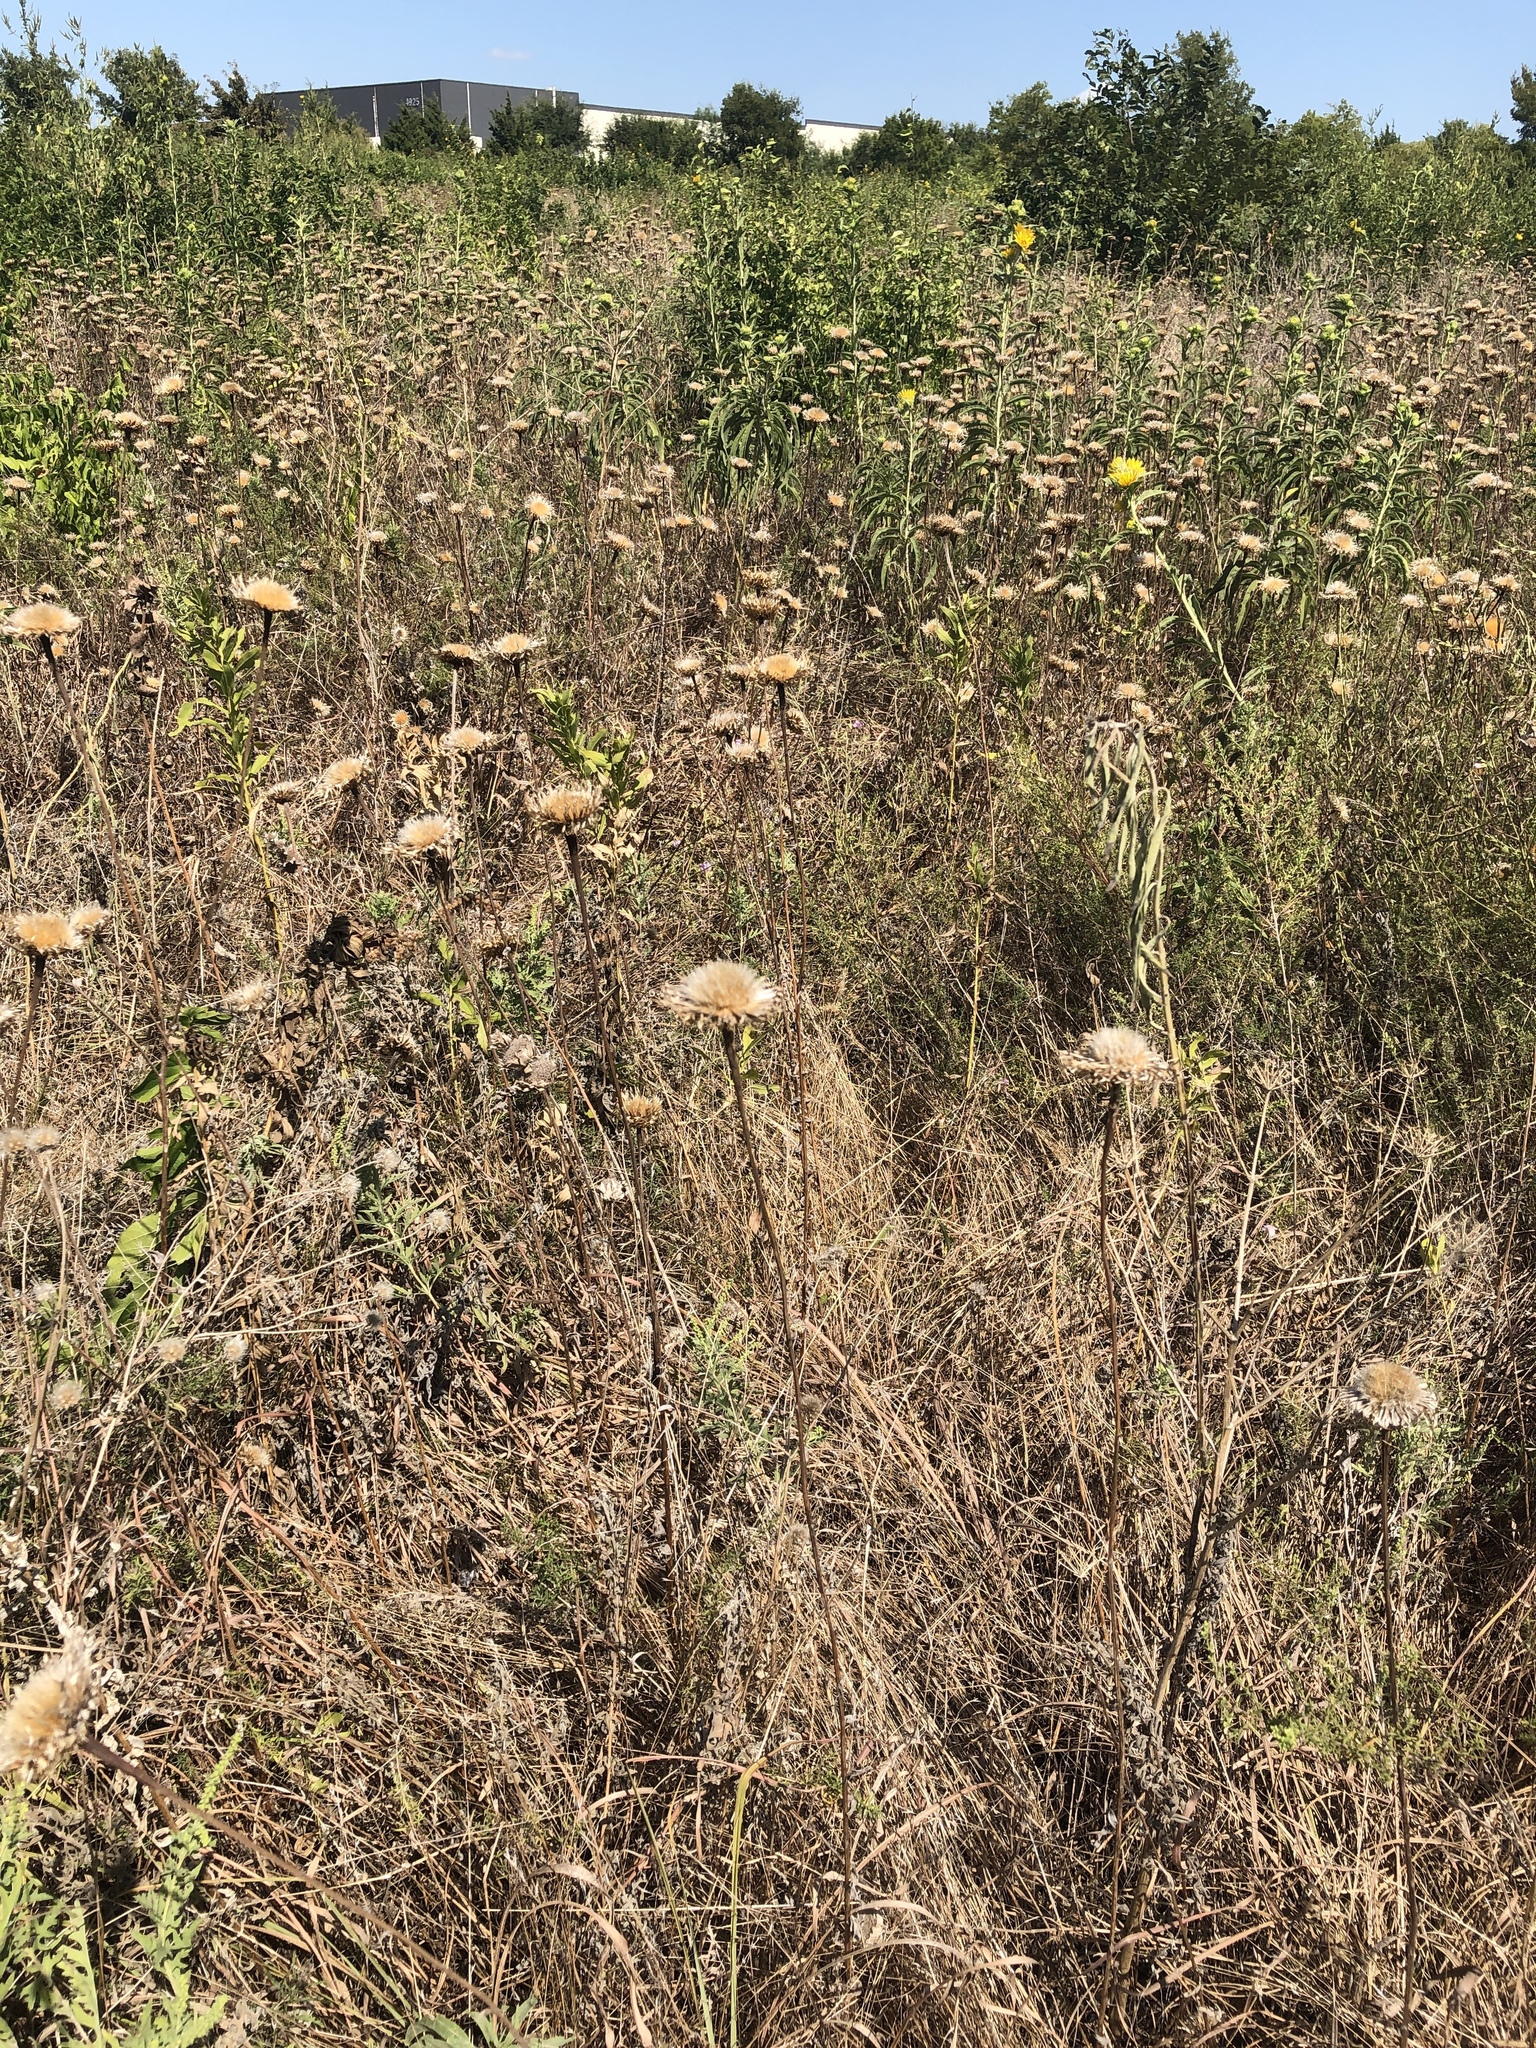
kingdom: Plantae
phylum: Tracheophyta
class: Magnoliopsida
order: Asterales
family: Asteraceae
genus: Plectocephalus
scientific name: Plectocephalus americanus
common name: American basket-flower
